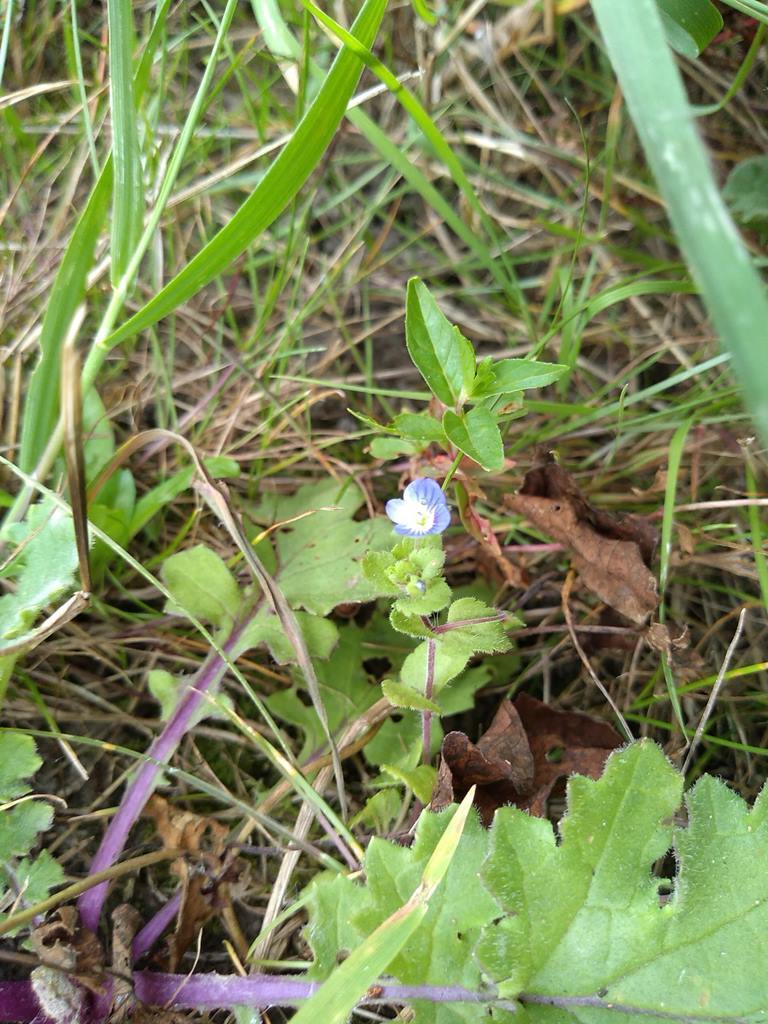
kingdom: Plantae
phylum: Tracheophyta
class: Magnoliopsida
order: Lamiales
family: Plantaginaceae
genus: Veronica
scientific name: Veronica persica
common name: Common field-speedwell
